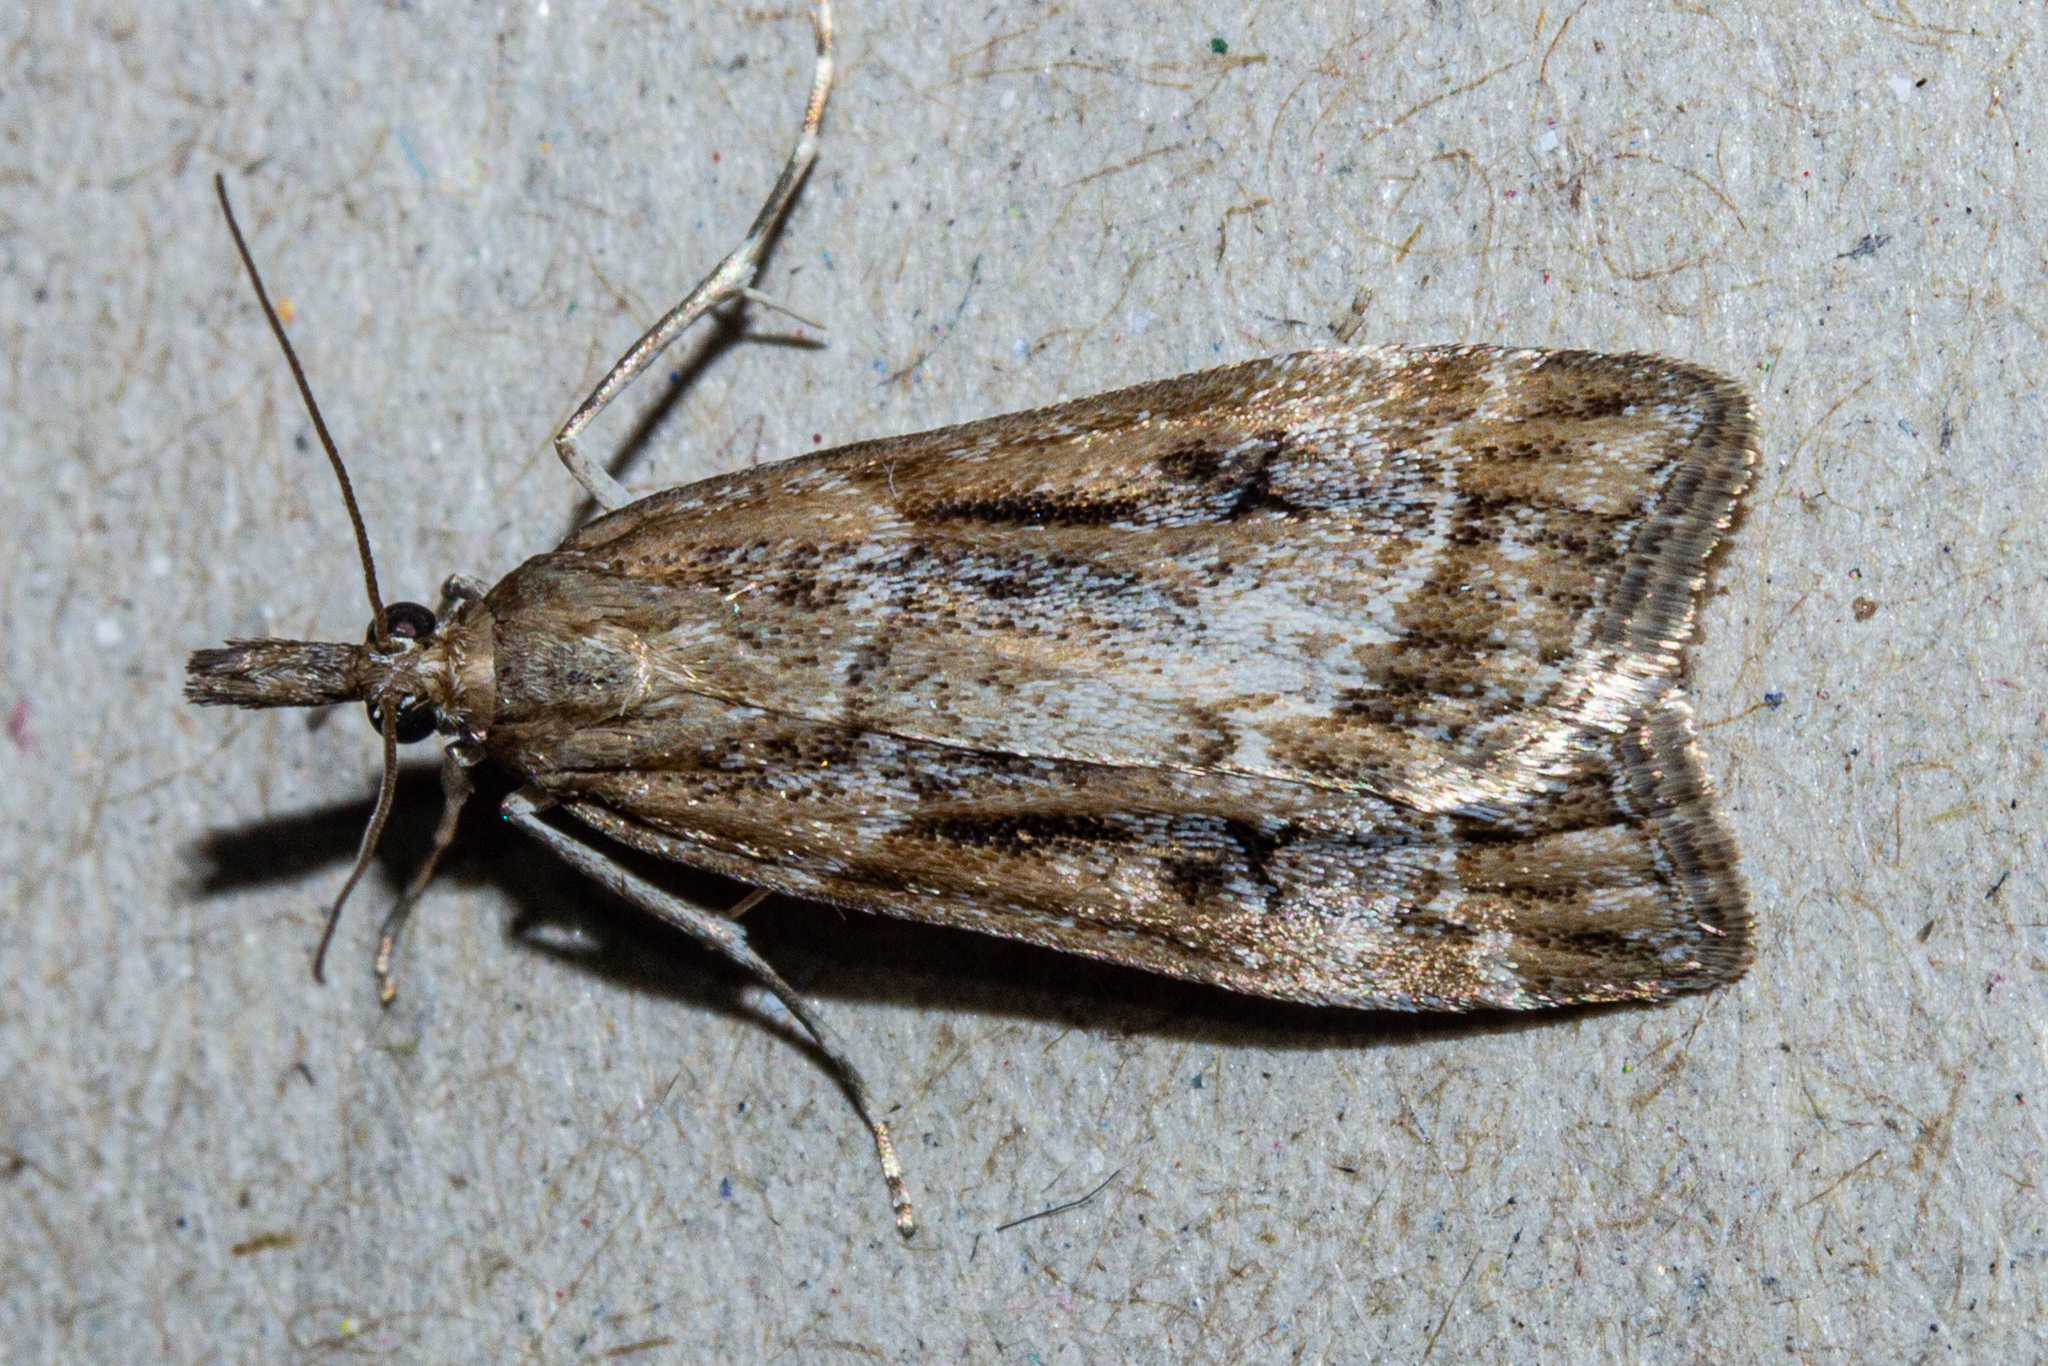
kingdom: Animalia
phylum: Arthropoda
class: Insecta
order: Lepidoptera
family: Crambidae
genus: Eudonia
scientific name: Eudonia chalara
